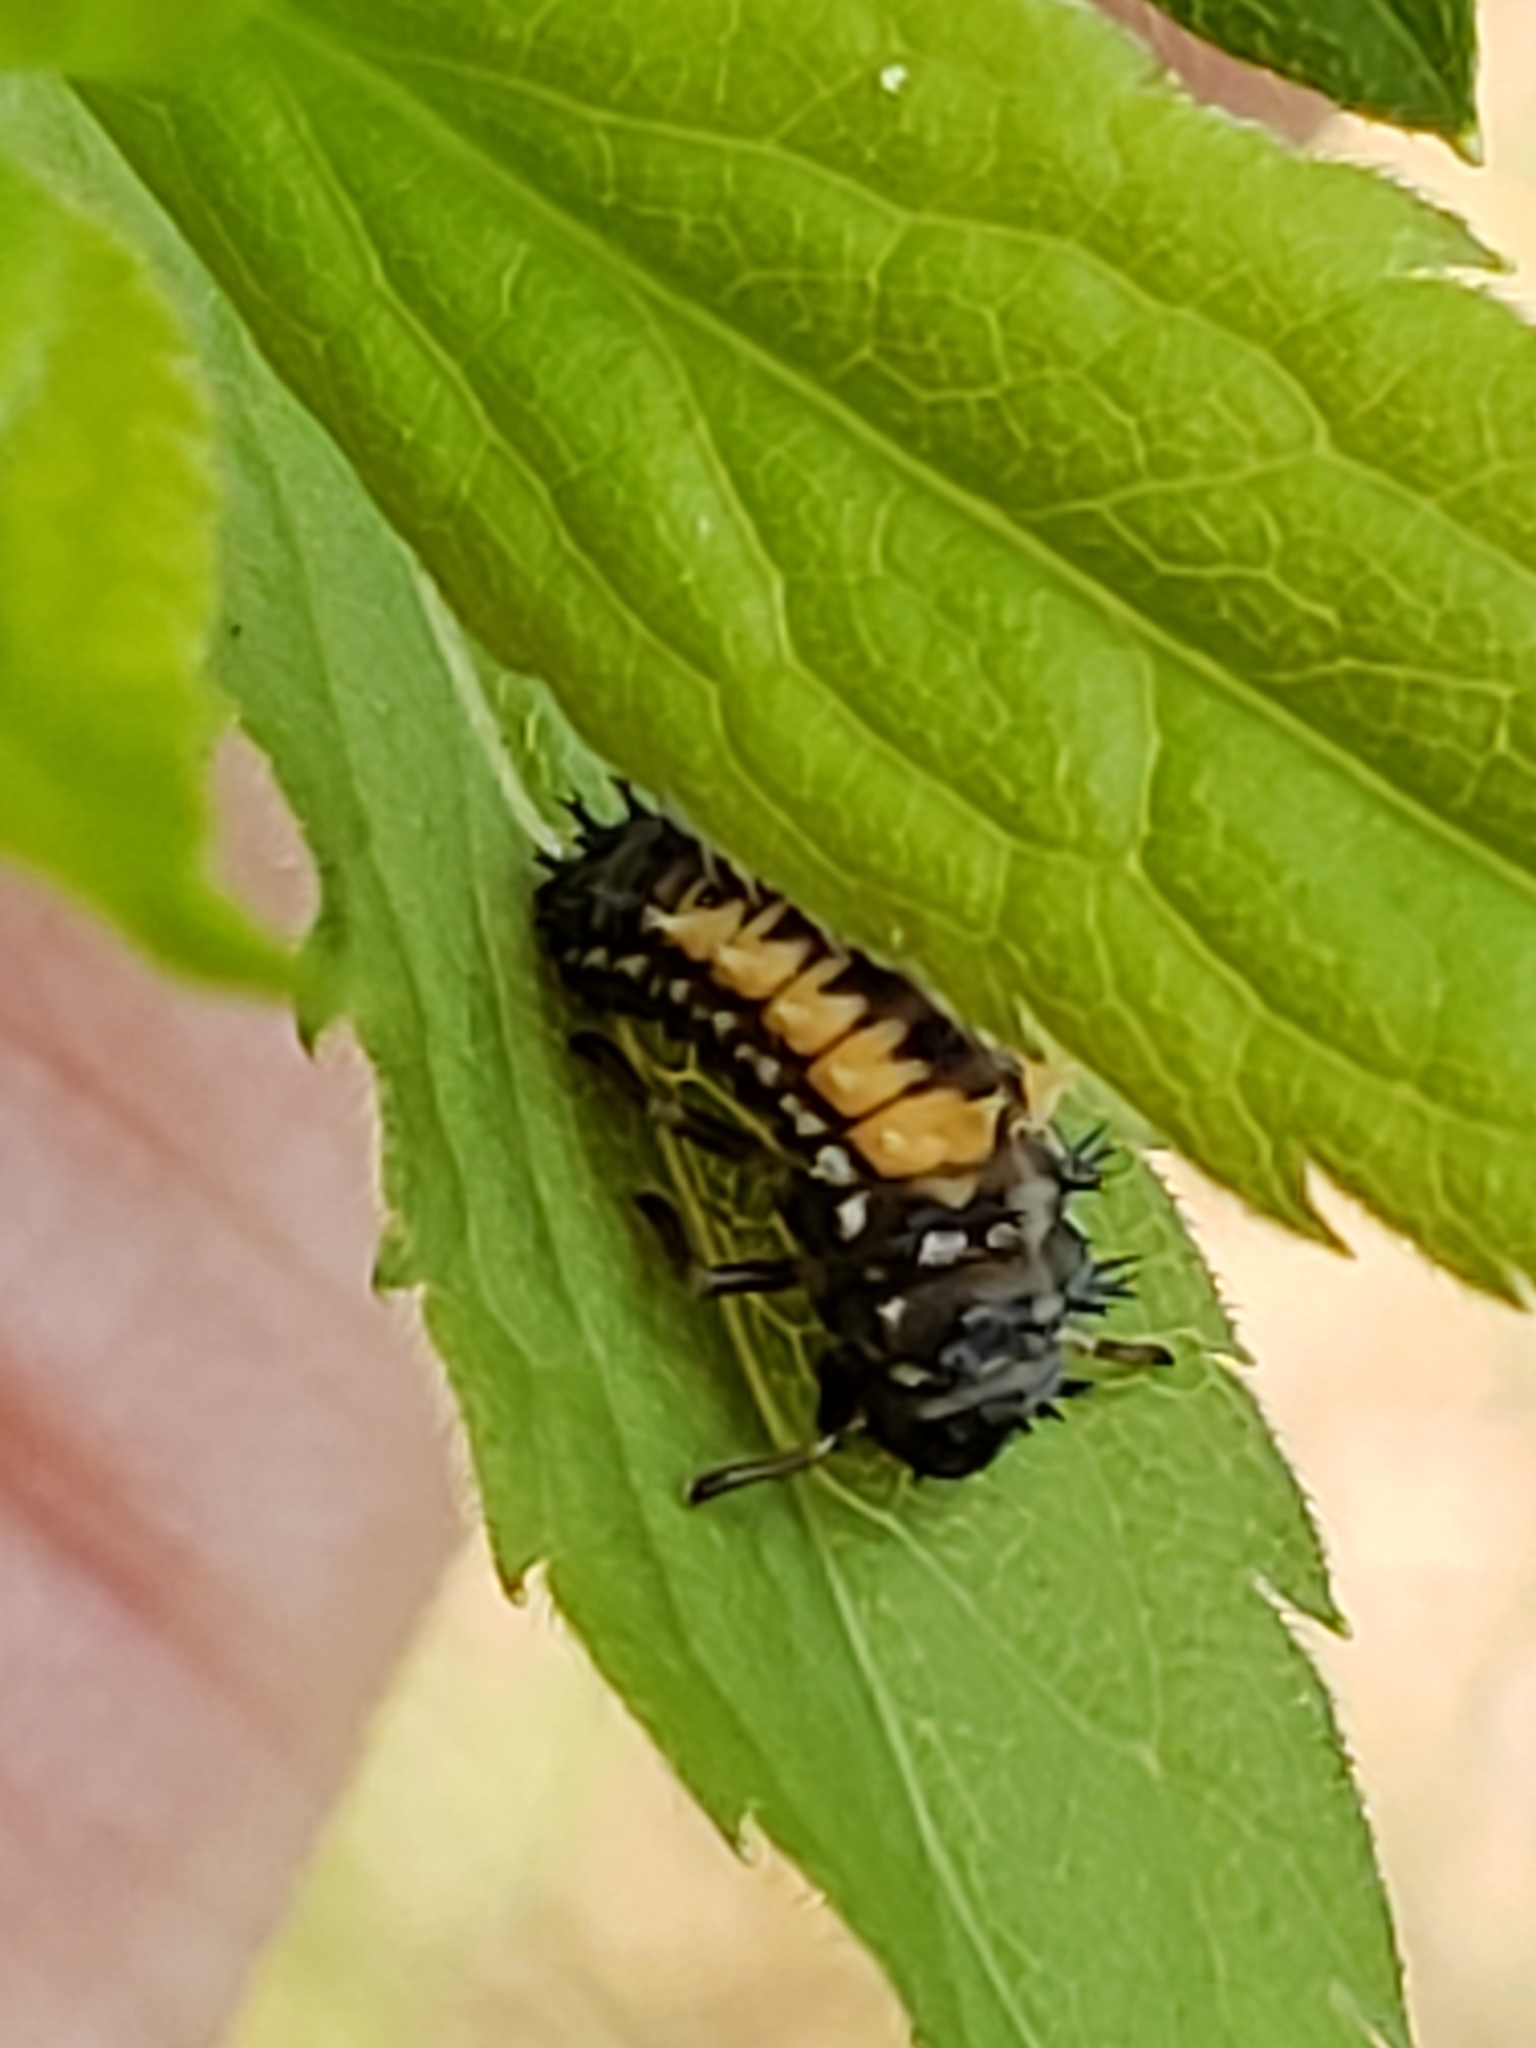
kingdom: Animalia
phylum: Arthropoda
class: Insecta
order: Coleoptera
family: Coccinellidae
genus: Harmonia
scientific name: Harmonia axyridis
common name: Harlequin ladybird
